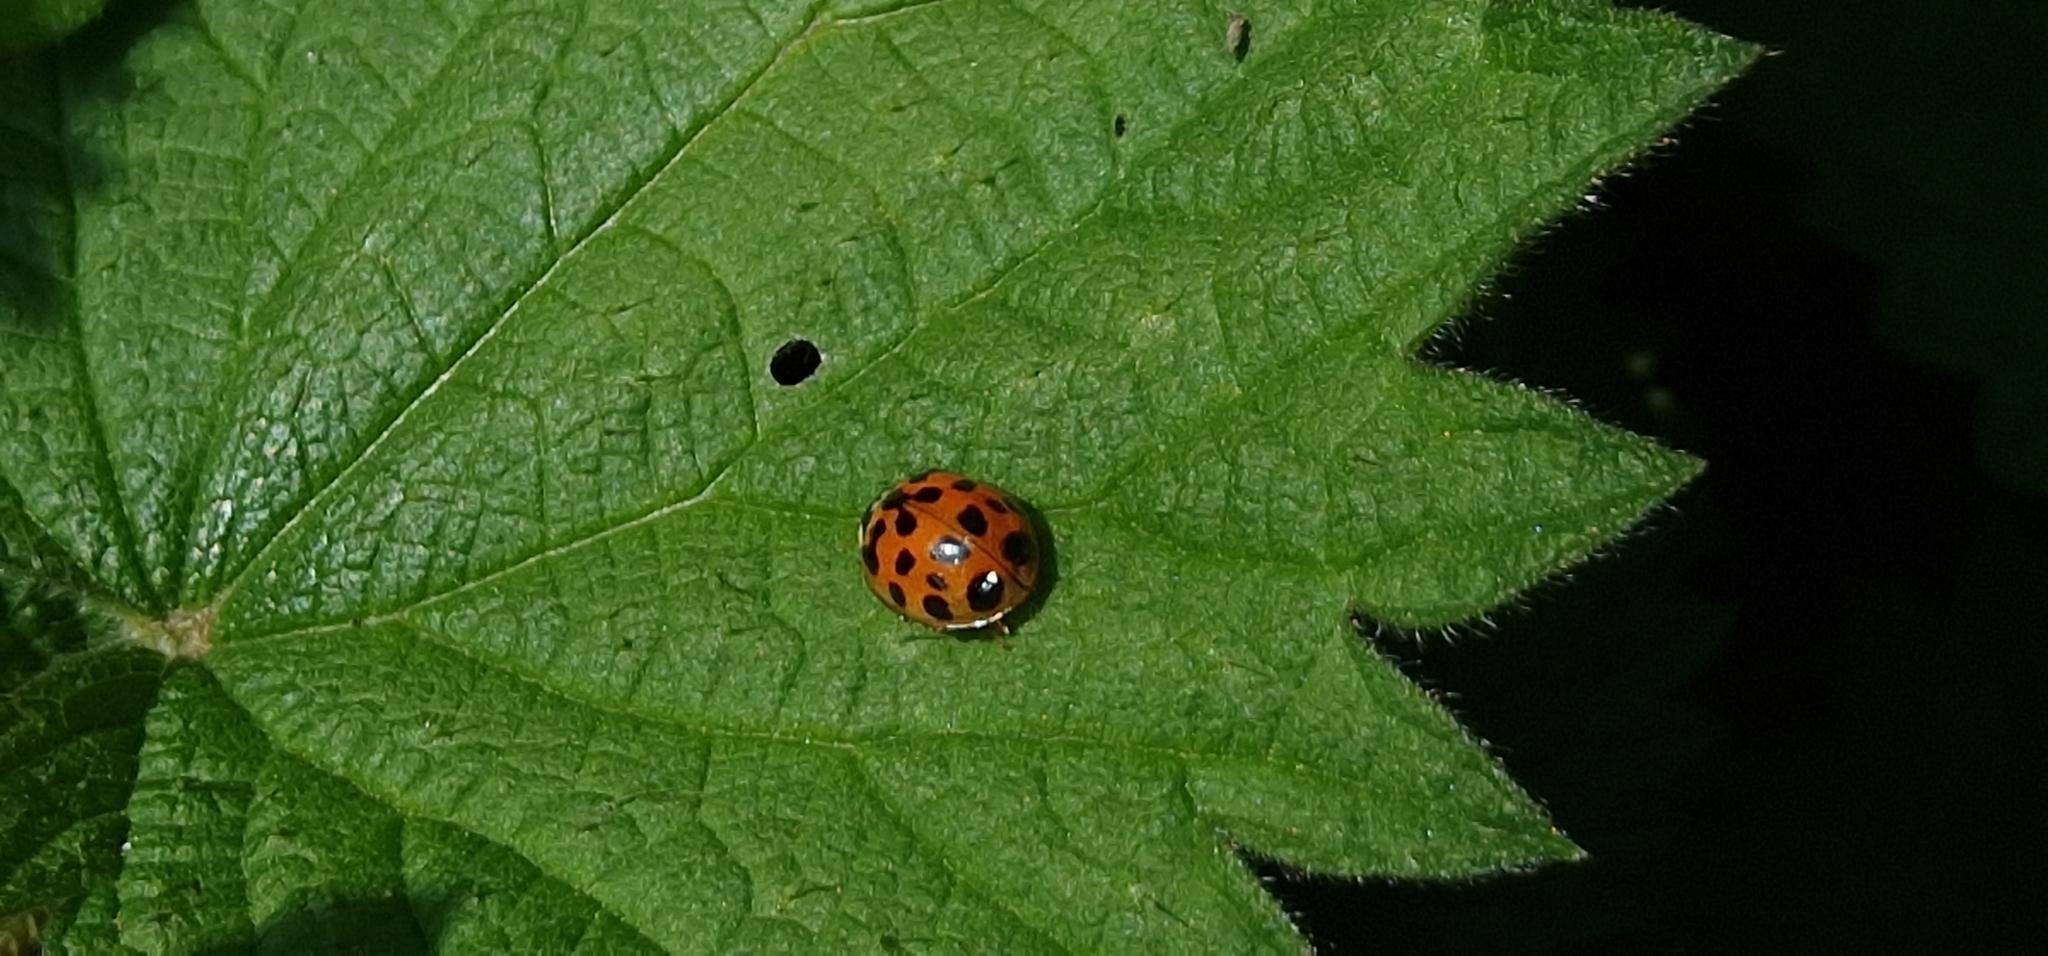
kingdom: Animalia
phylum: Arthropoda
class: Insecta
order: Coleoptera
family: Coccinellidae
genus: Harmonia
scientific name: Harmonia axyridis
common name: Harlequin ladybird
